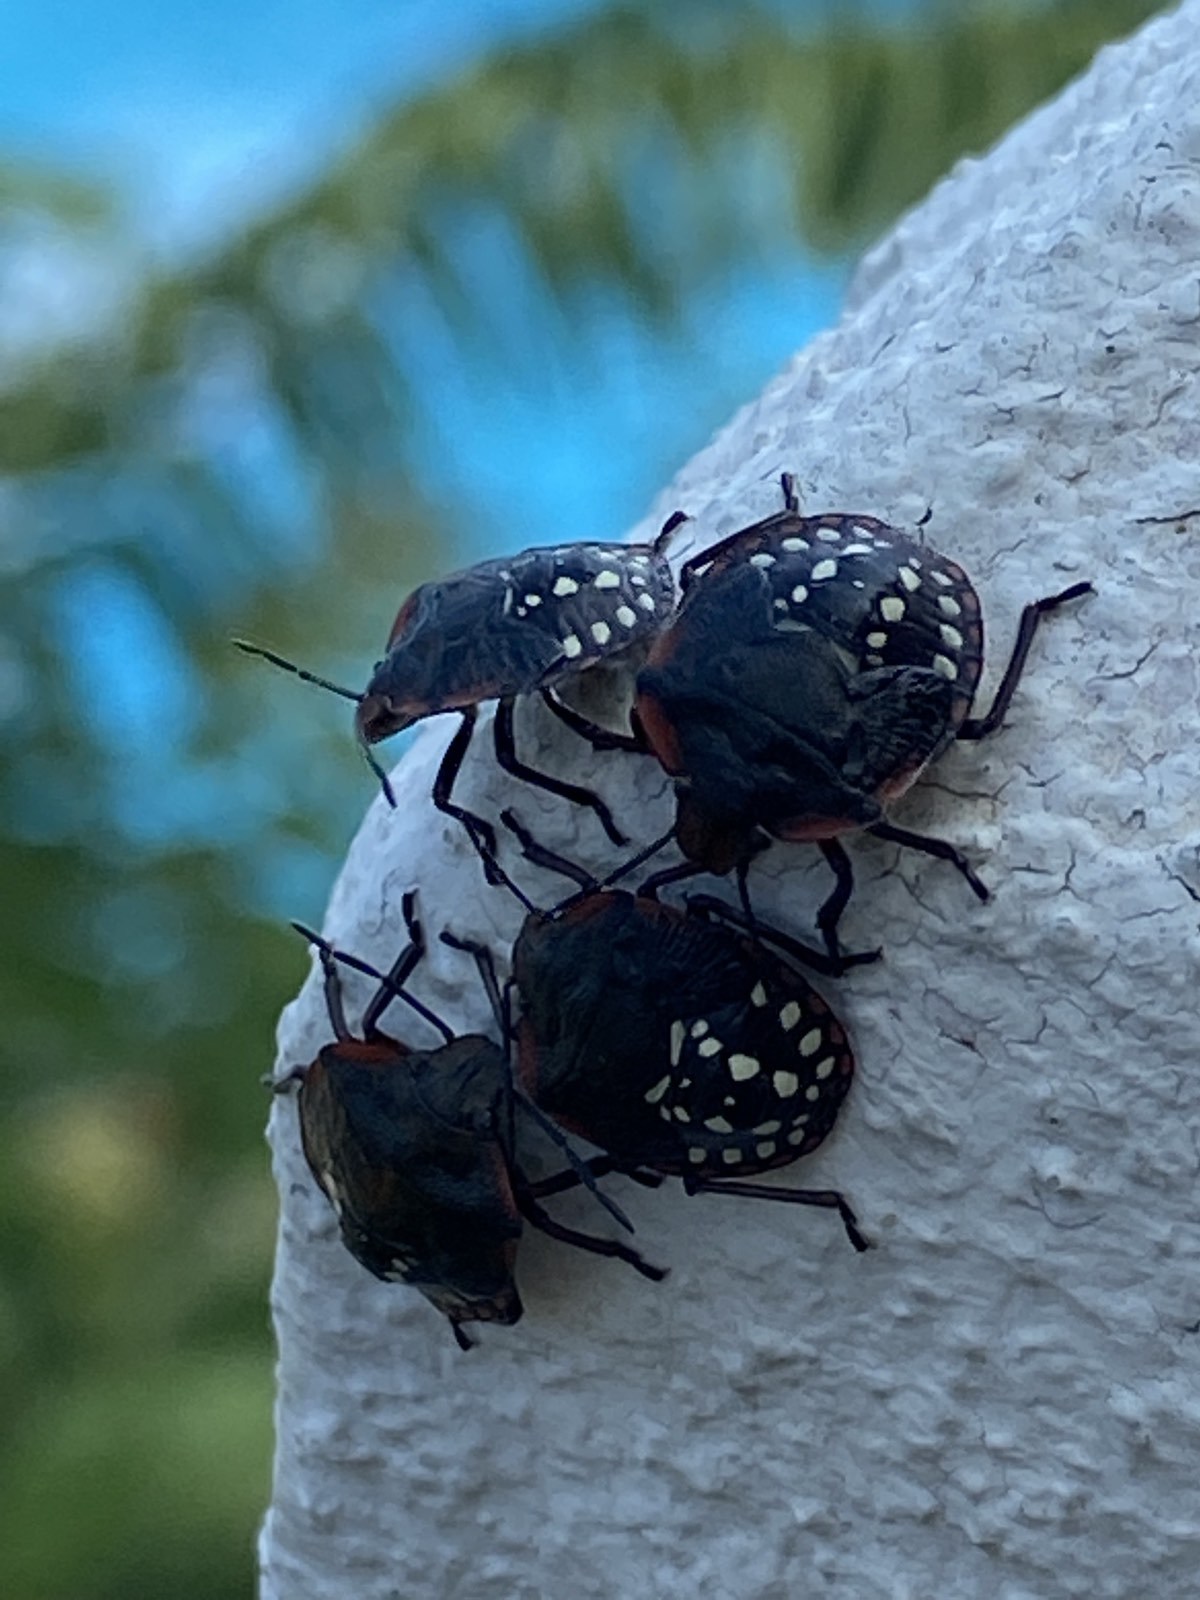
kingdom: Animalia
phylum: Arthropoda
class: Insecta
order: Hemiptera
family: Pentatomidae
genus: Nezara
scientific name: Nezara viridula
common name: Southern green stink bug
